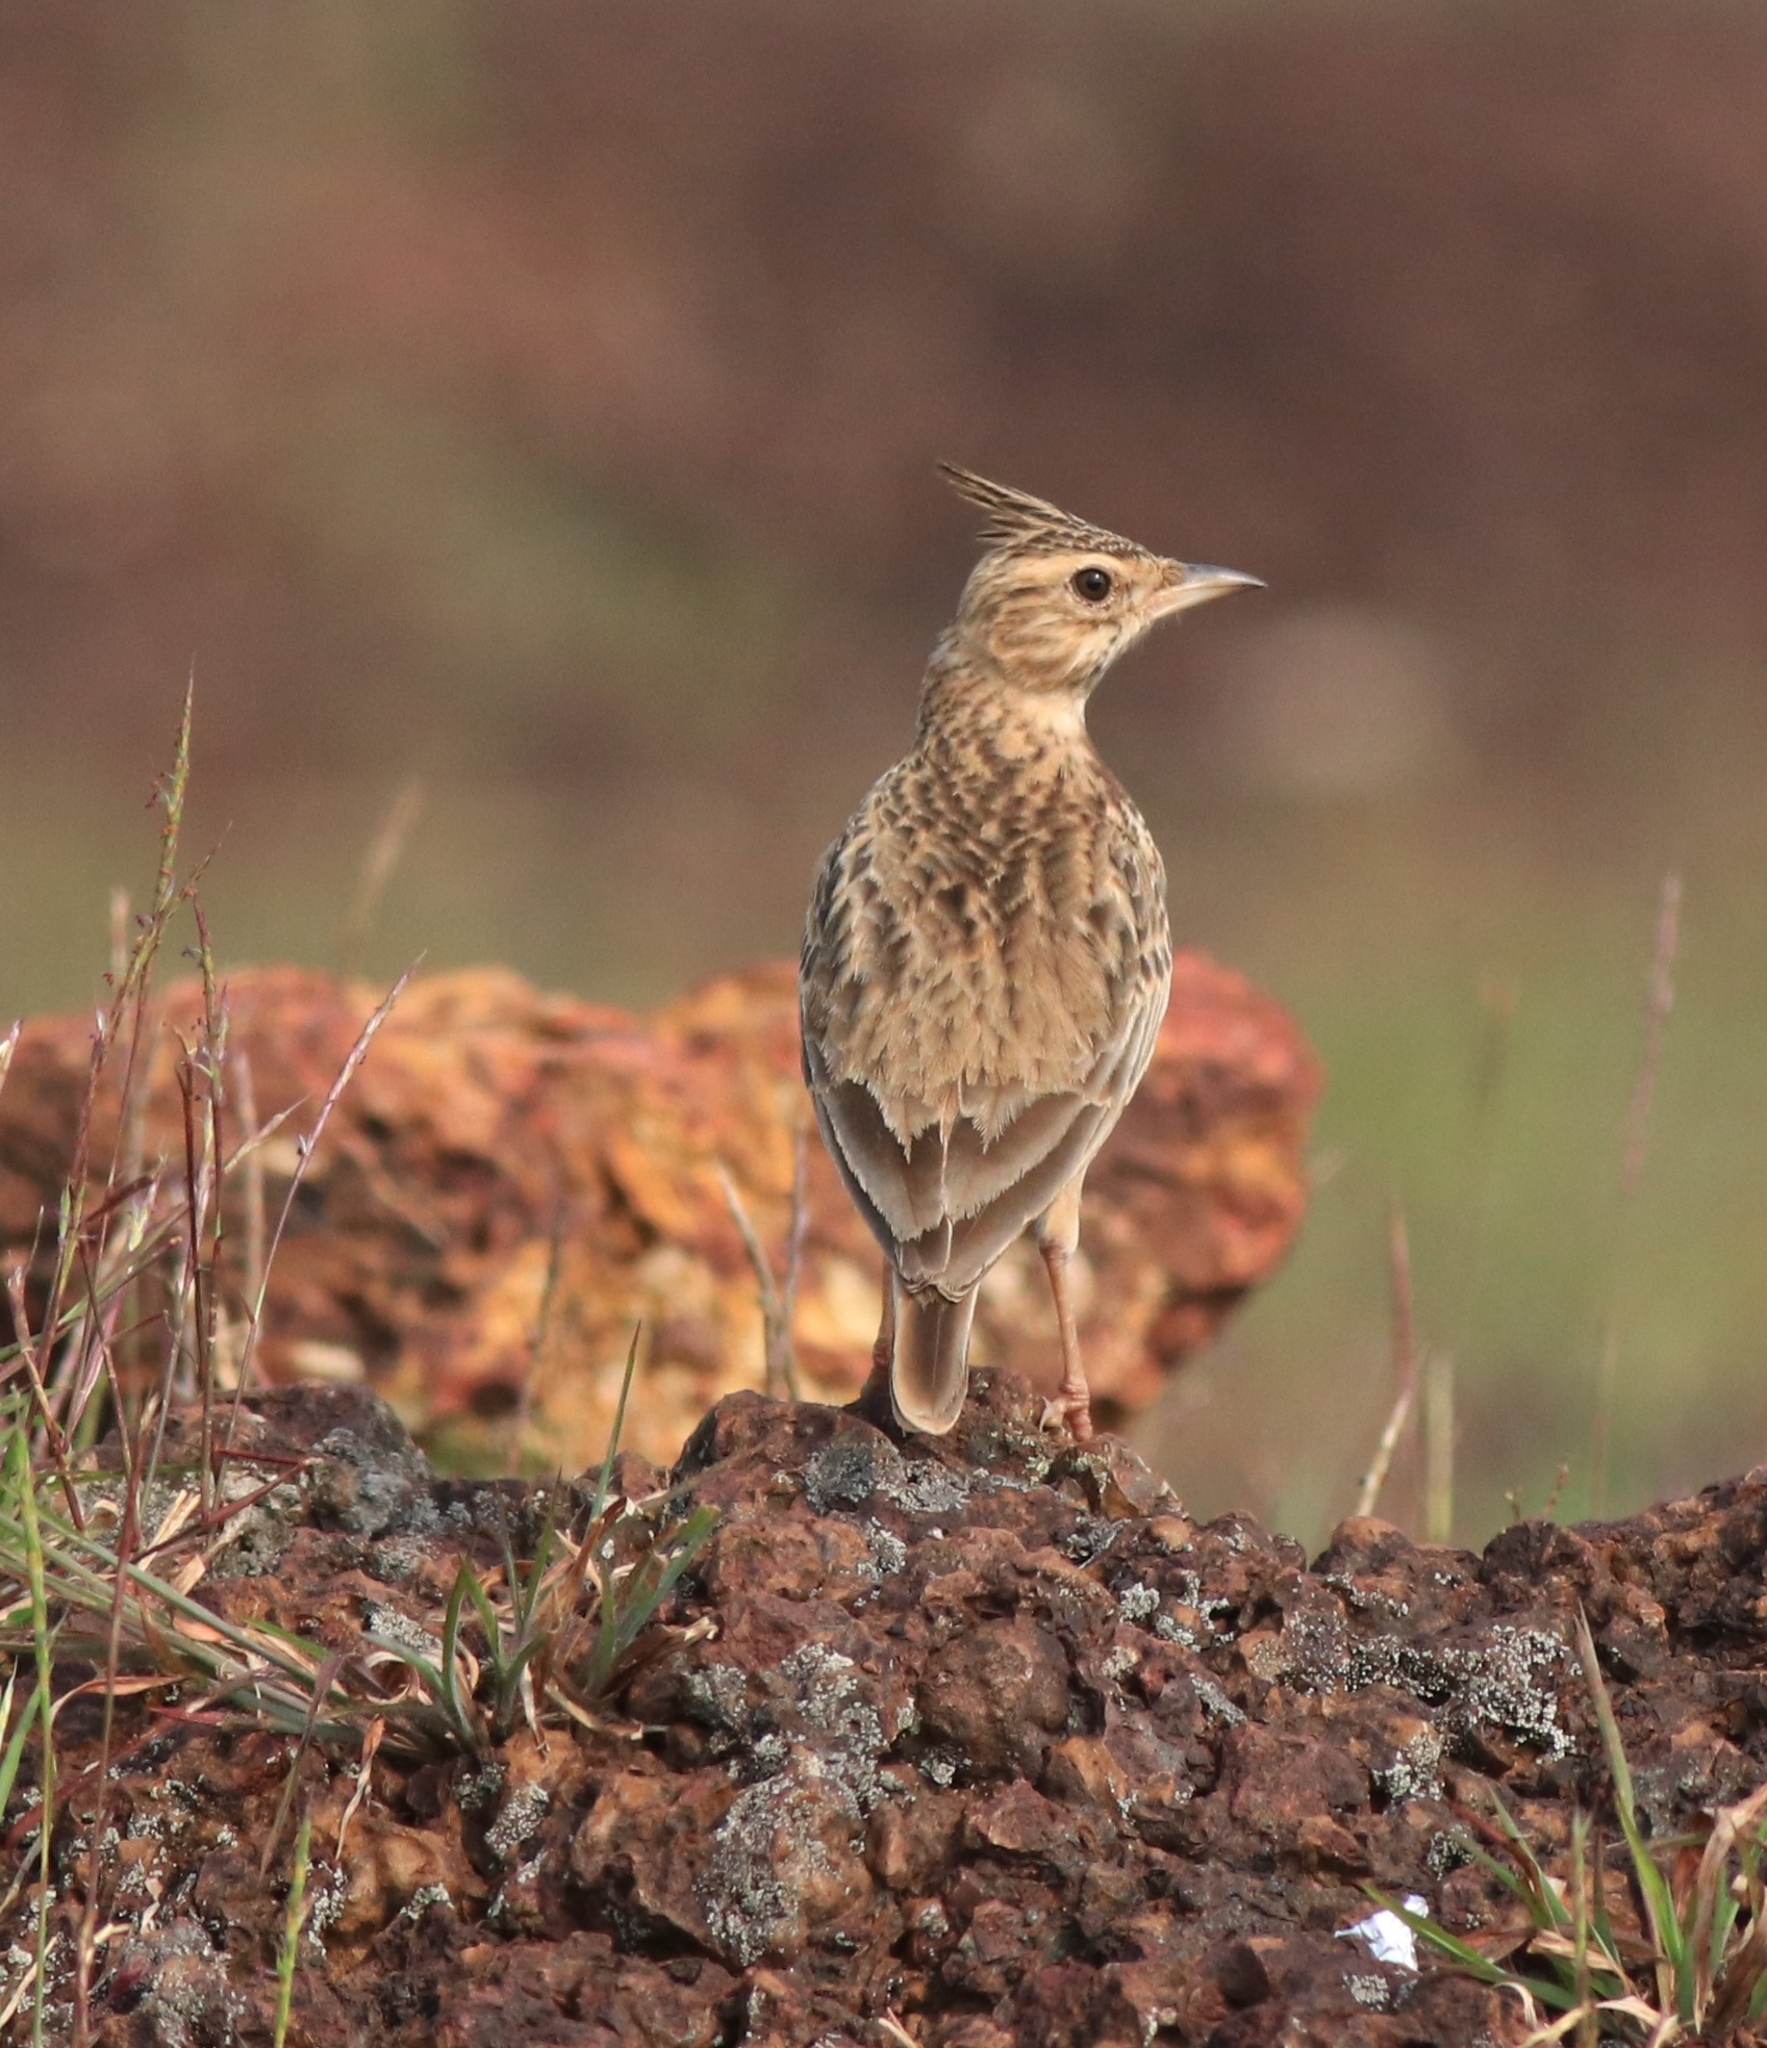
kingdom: Animalia
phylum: Chordata
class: Aves
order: Passeriformes
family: Alaudidae
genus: Galerida
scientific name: Galerida malabarica
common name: Malabar lark
